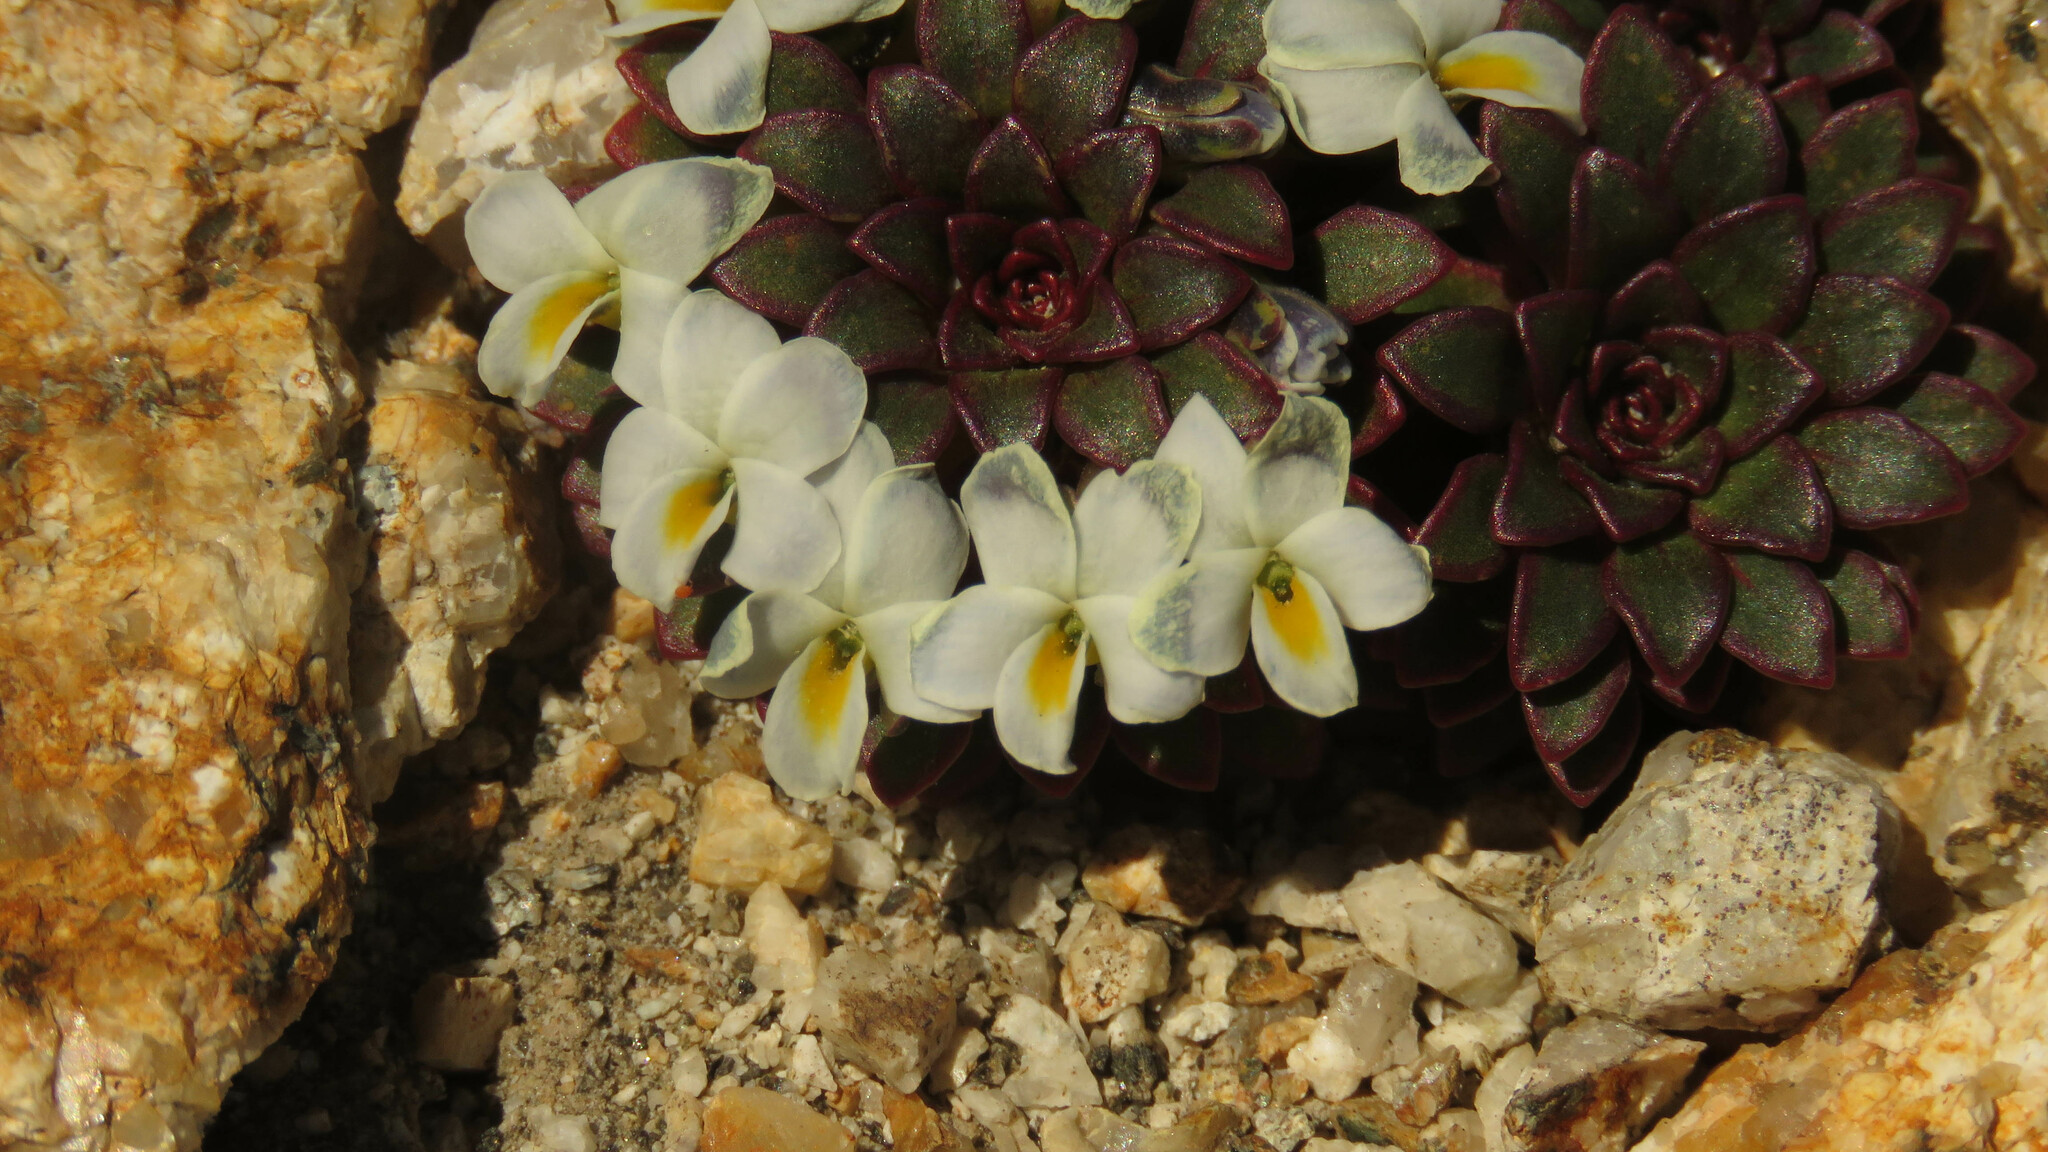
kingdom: Plantae
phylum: Tracheophyta
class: Magnoliopsida
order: Malpighiales
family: Violaceae
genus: Viola
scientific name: Viola sacculus
